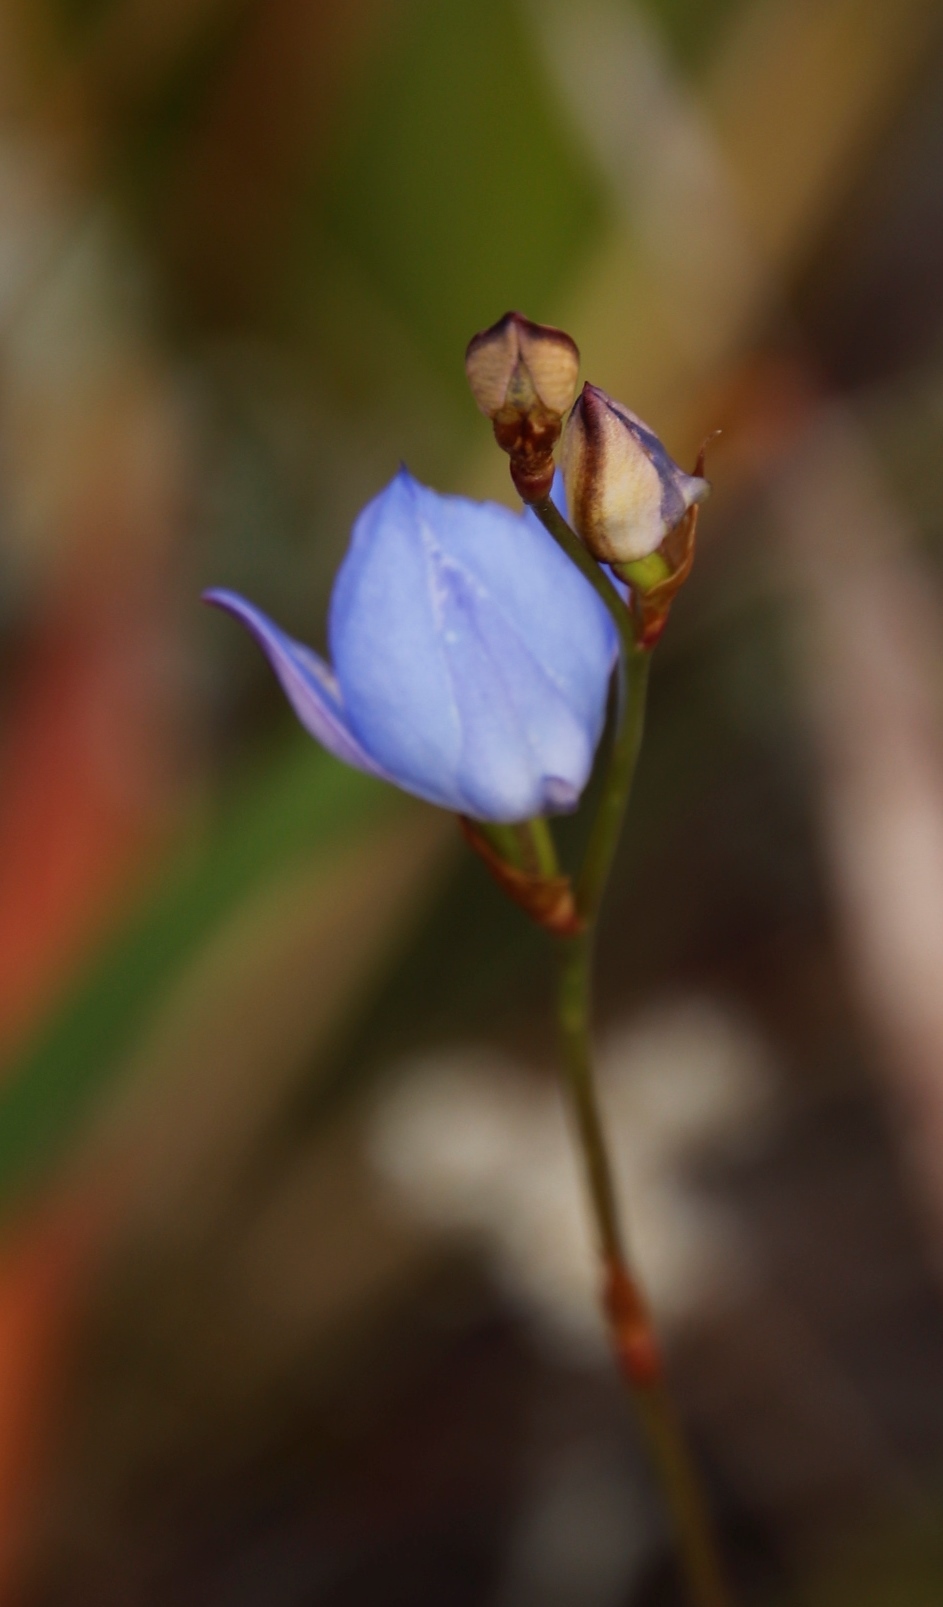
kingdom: Plantae
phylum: Tracheophyta
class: Liliopsida
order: Asparagales
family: Orchidaceae
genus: Disa
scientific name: Disa graminifolia
